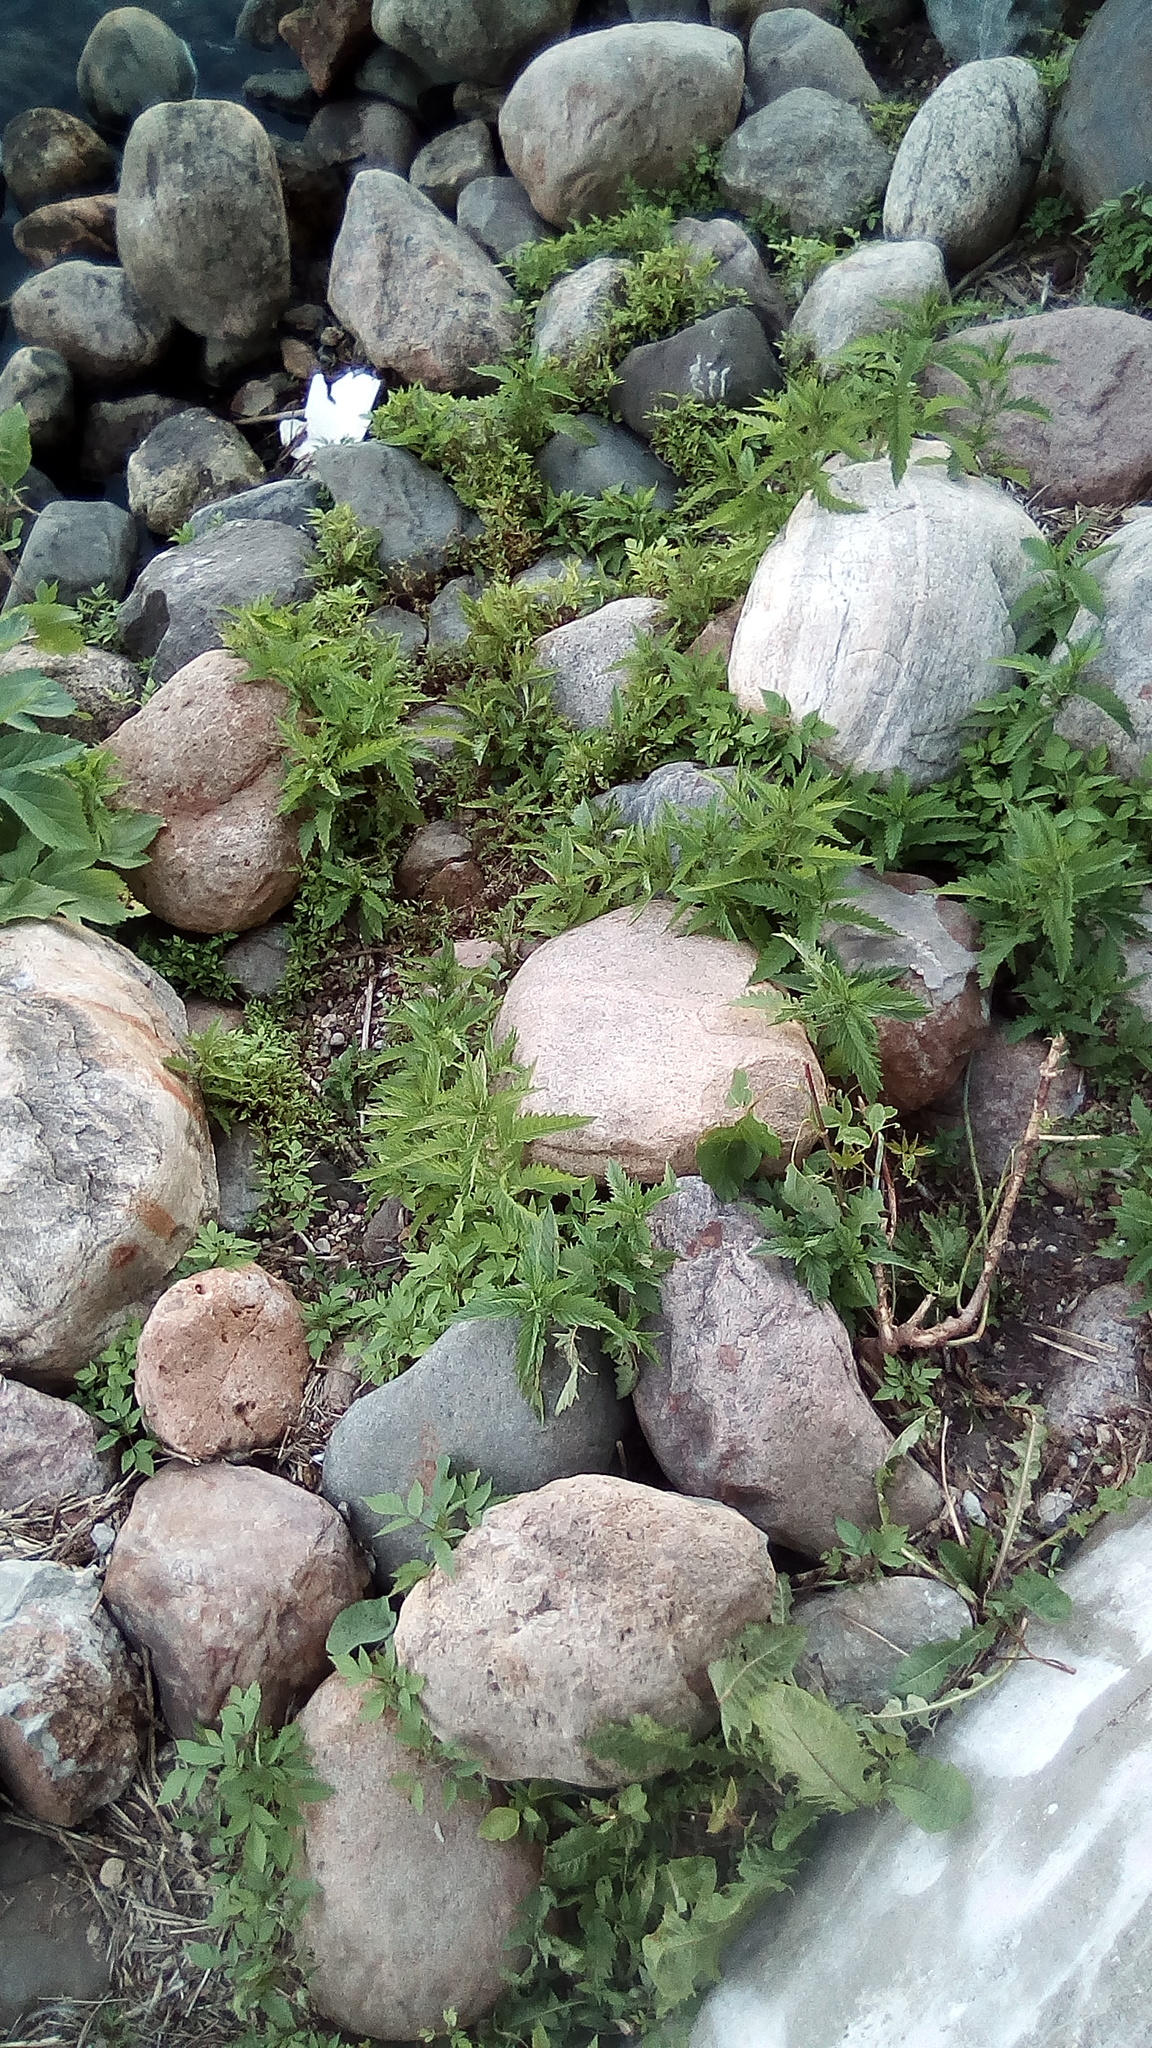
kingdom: Plantae
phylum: Tracheophyta
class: Magnoliopsida
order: Lamiales
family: Lamiaceae
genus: Lycopus
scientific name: Lycopus europaeus
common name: European bugleweed
